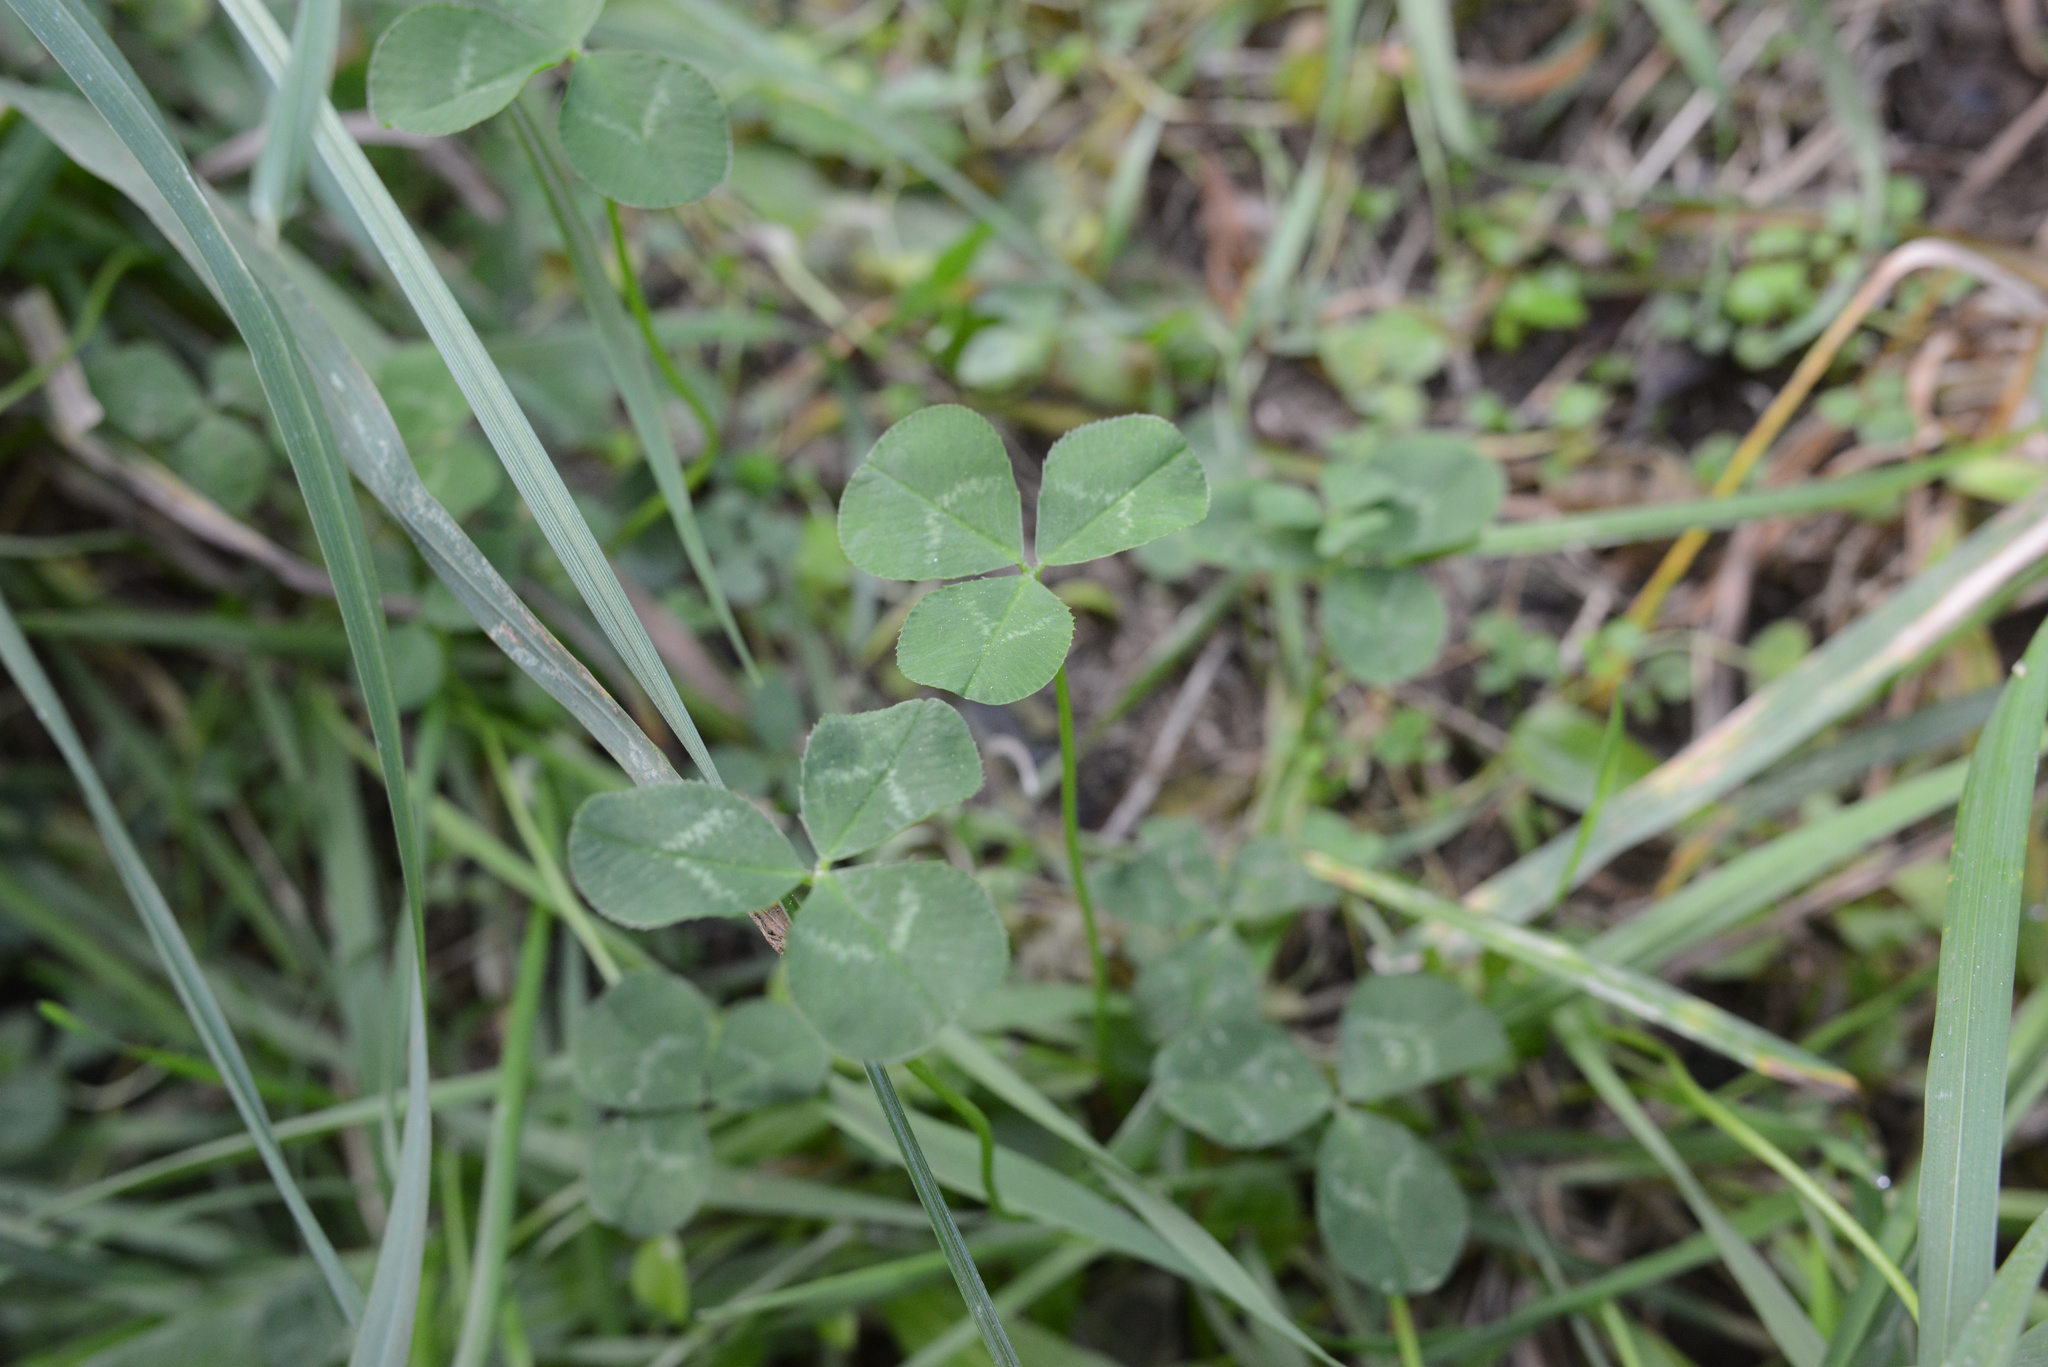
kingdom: Plantae
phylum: Tracheophyta
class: Magnoliopsida
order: Fabales
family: Fabaceae
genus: Trifolium
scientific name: Trifolium repens
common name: White clover
